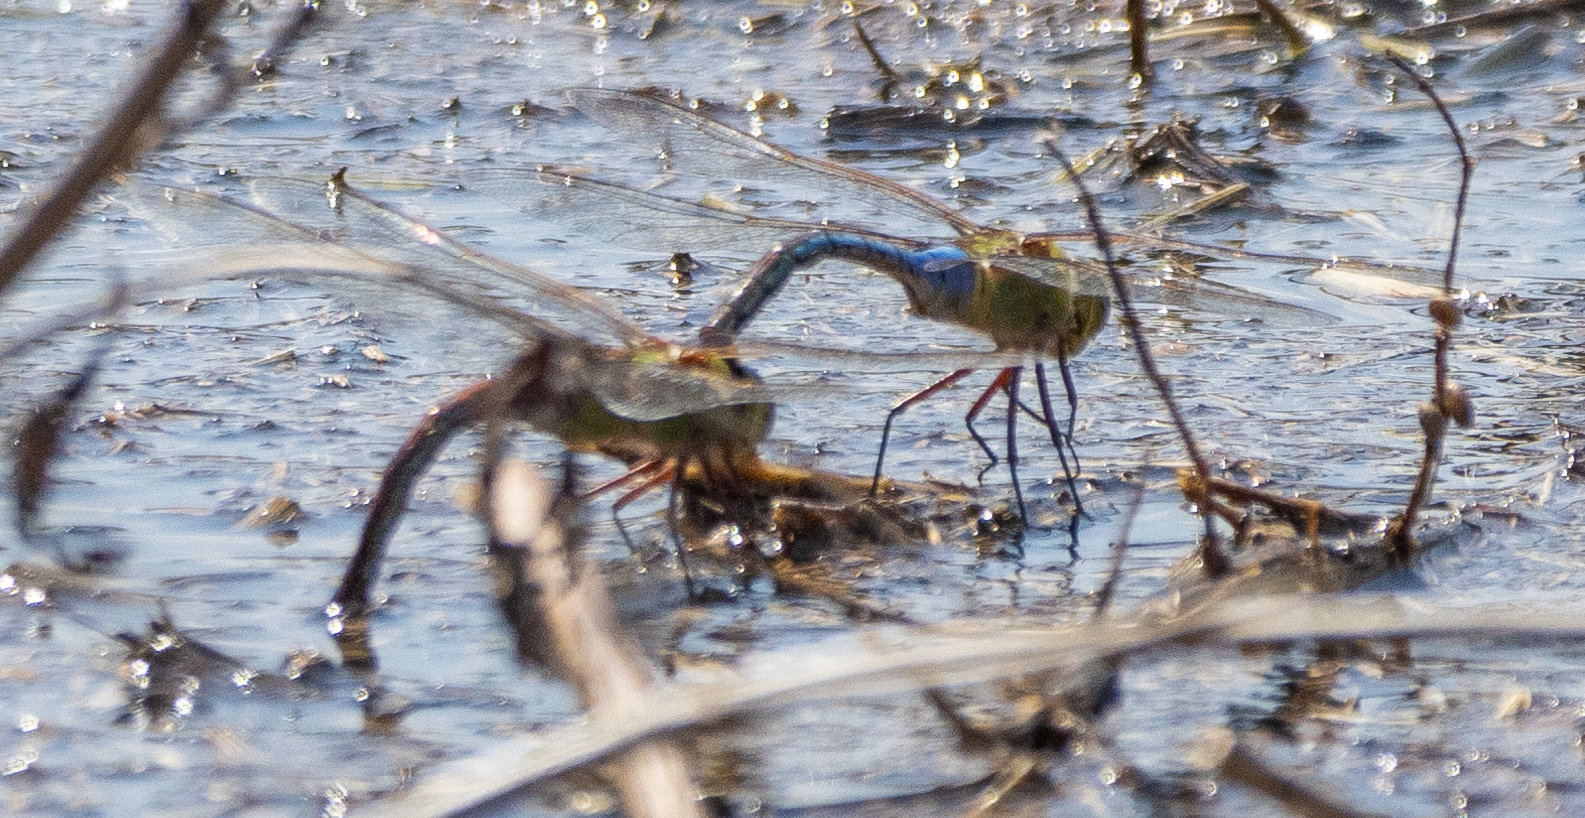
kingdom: Animalia
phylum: Arthropoda
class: Insecta
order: Odonata
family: Aeshnidae
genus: Anax
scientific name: Anax junius
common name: Common green darner
